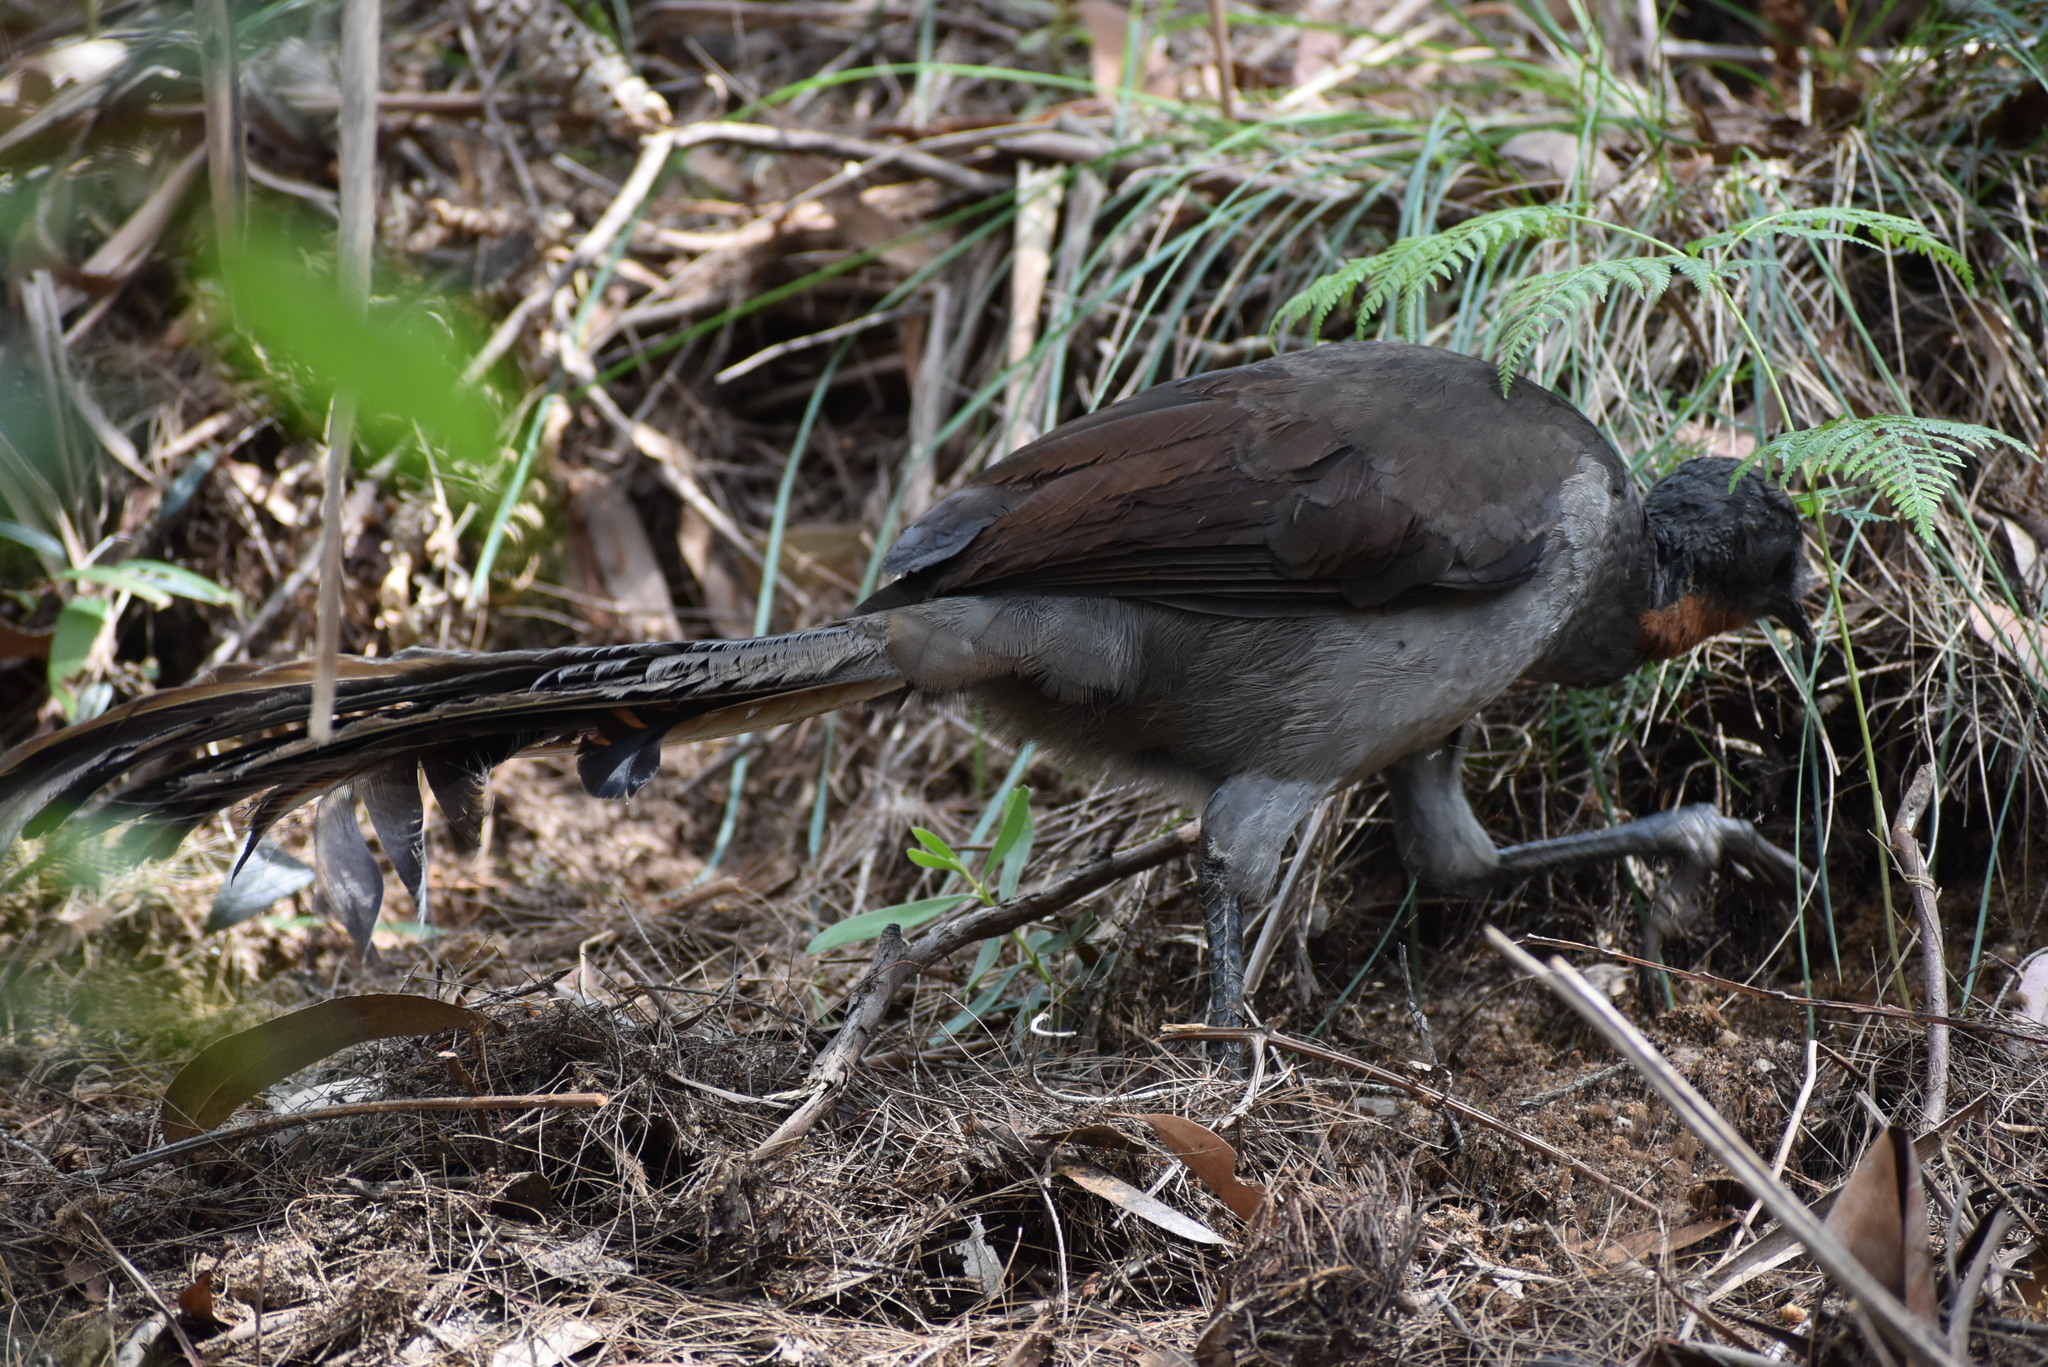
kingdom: Animalia
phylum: Chordata
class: Aves
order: Passeriformes
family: Menuridae
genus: Menura
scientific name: Menura novaehollandiae
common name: Superb lyrebird
